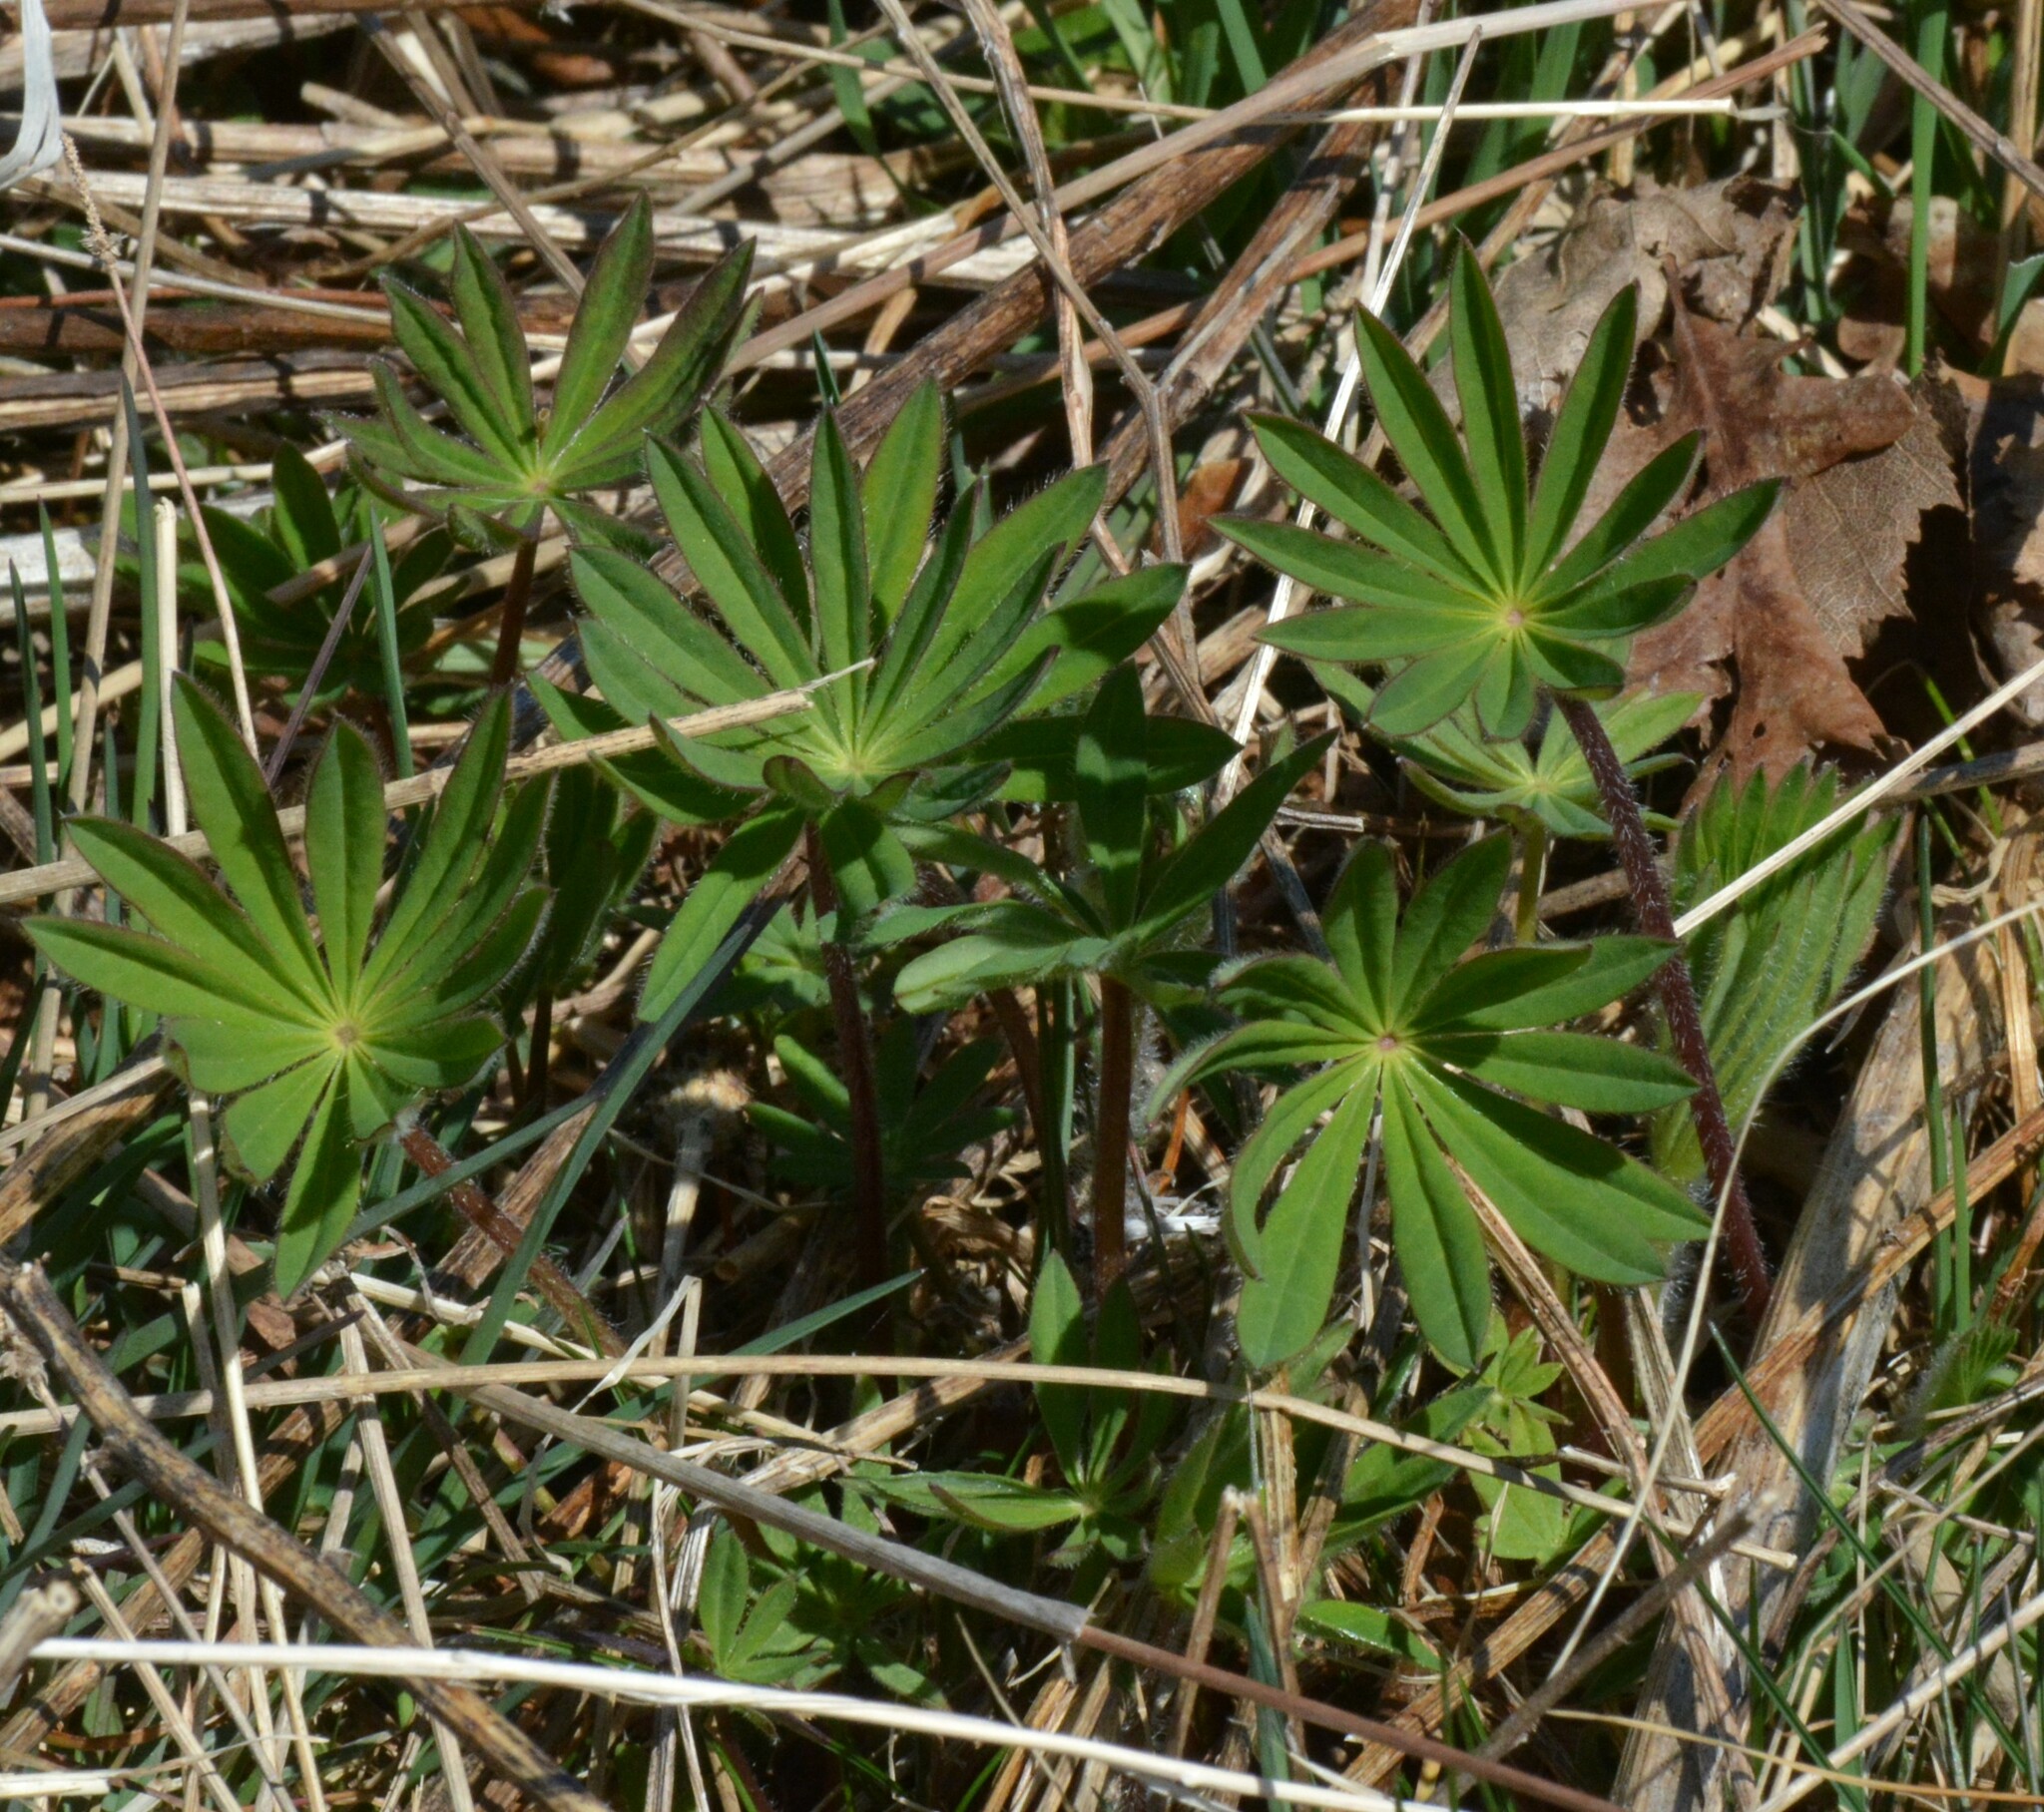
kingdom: Plantae
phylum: Tracheophyta
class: Magnoliopsida
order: Fabales
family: Fabaceae
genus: Lupinus
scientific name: Lupinus polyphyllus
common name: Garden lupin
